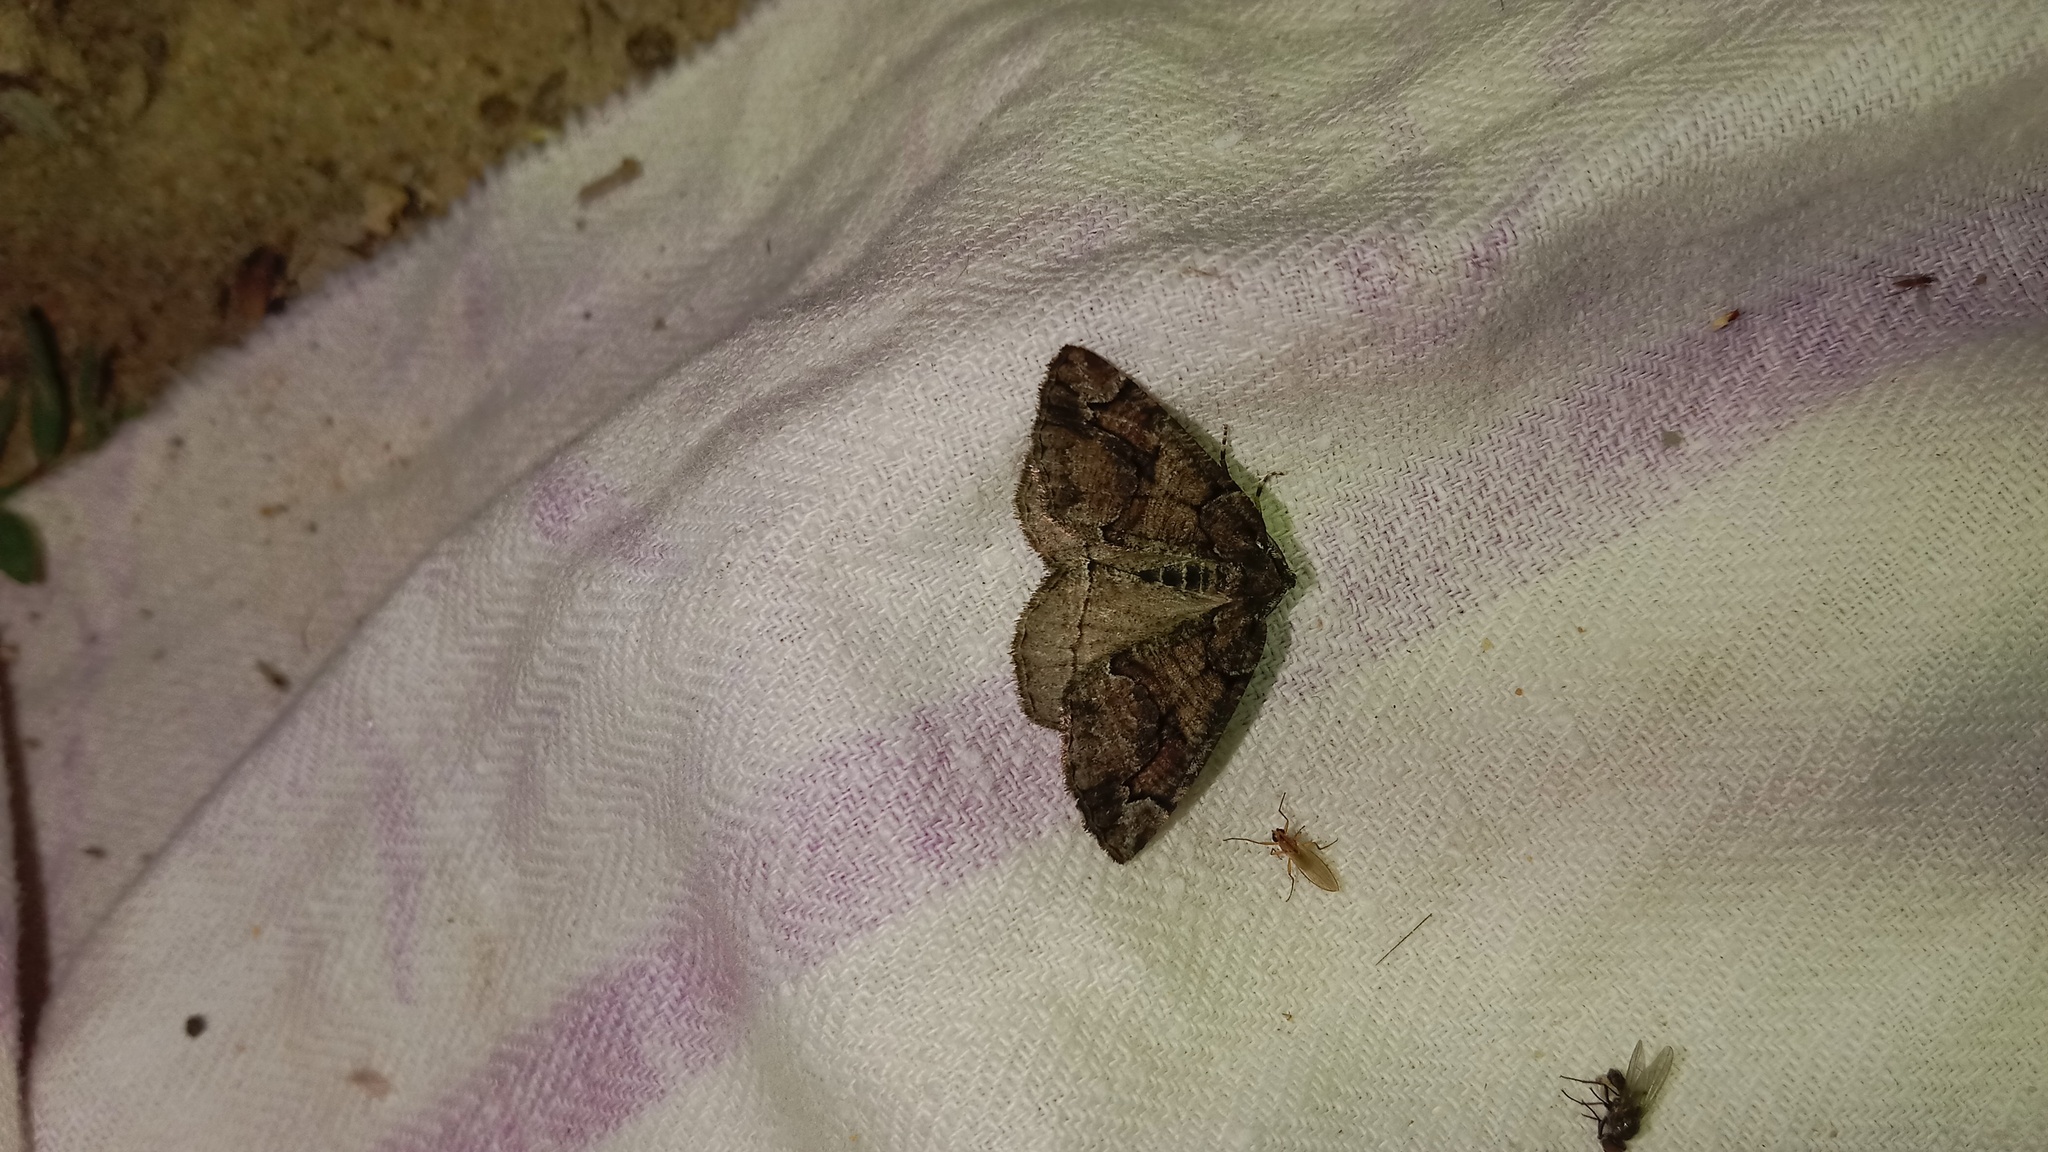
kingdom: Animalia
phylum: Arthropoda
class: Insecta
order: Lepidoptera
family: Geometridae
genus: Asovia
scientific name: Asovia maeoticaria
